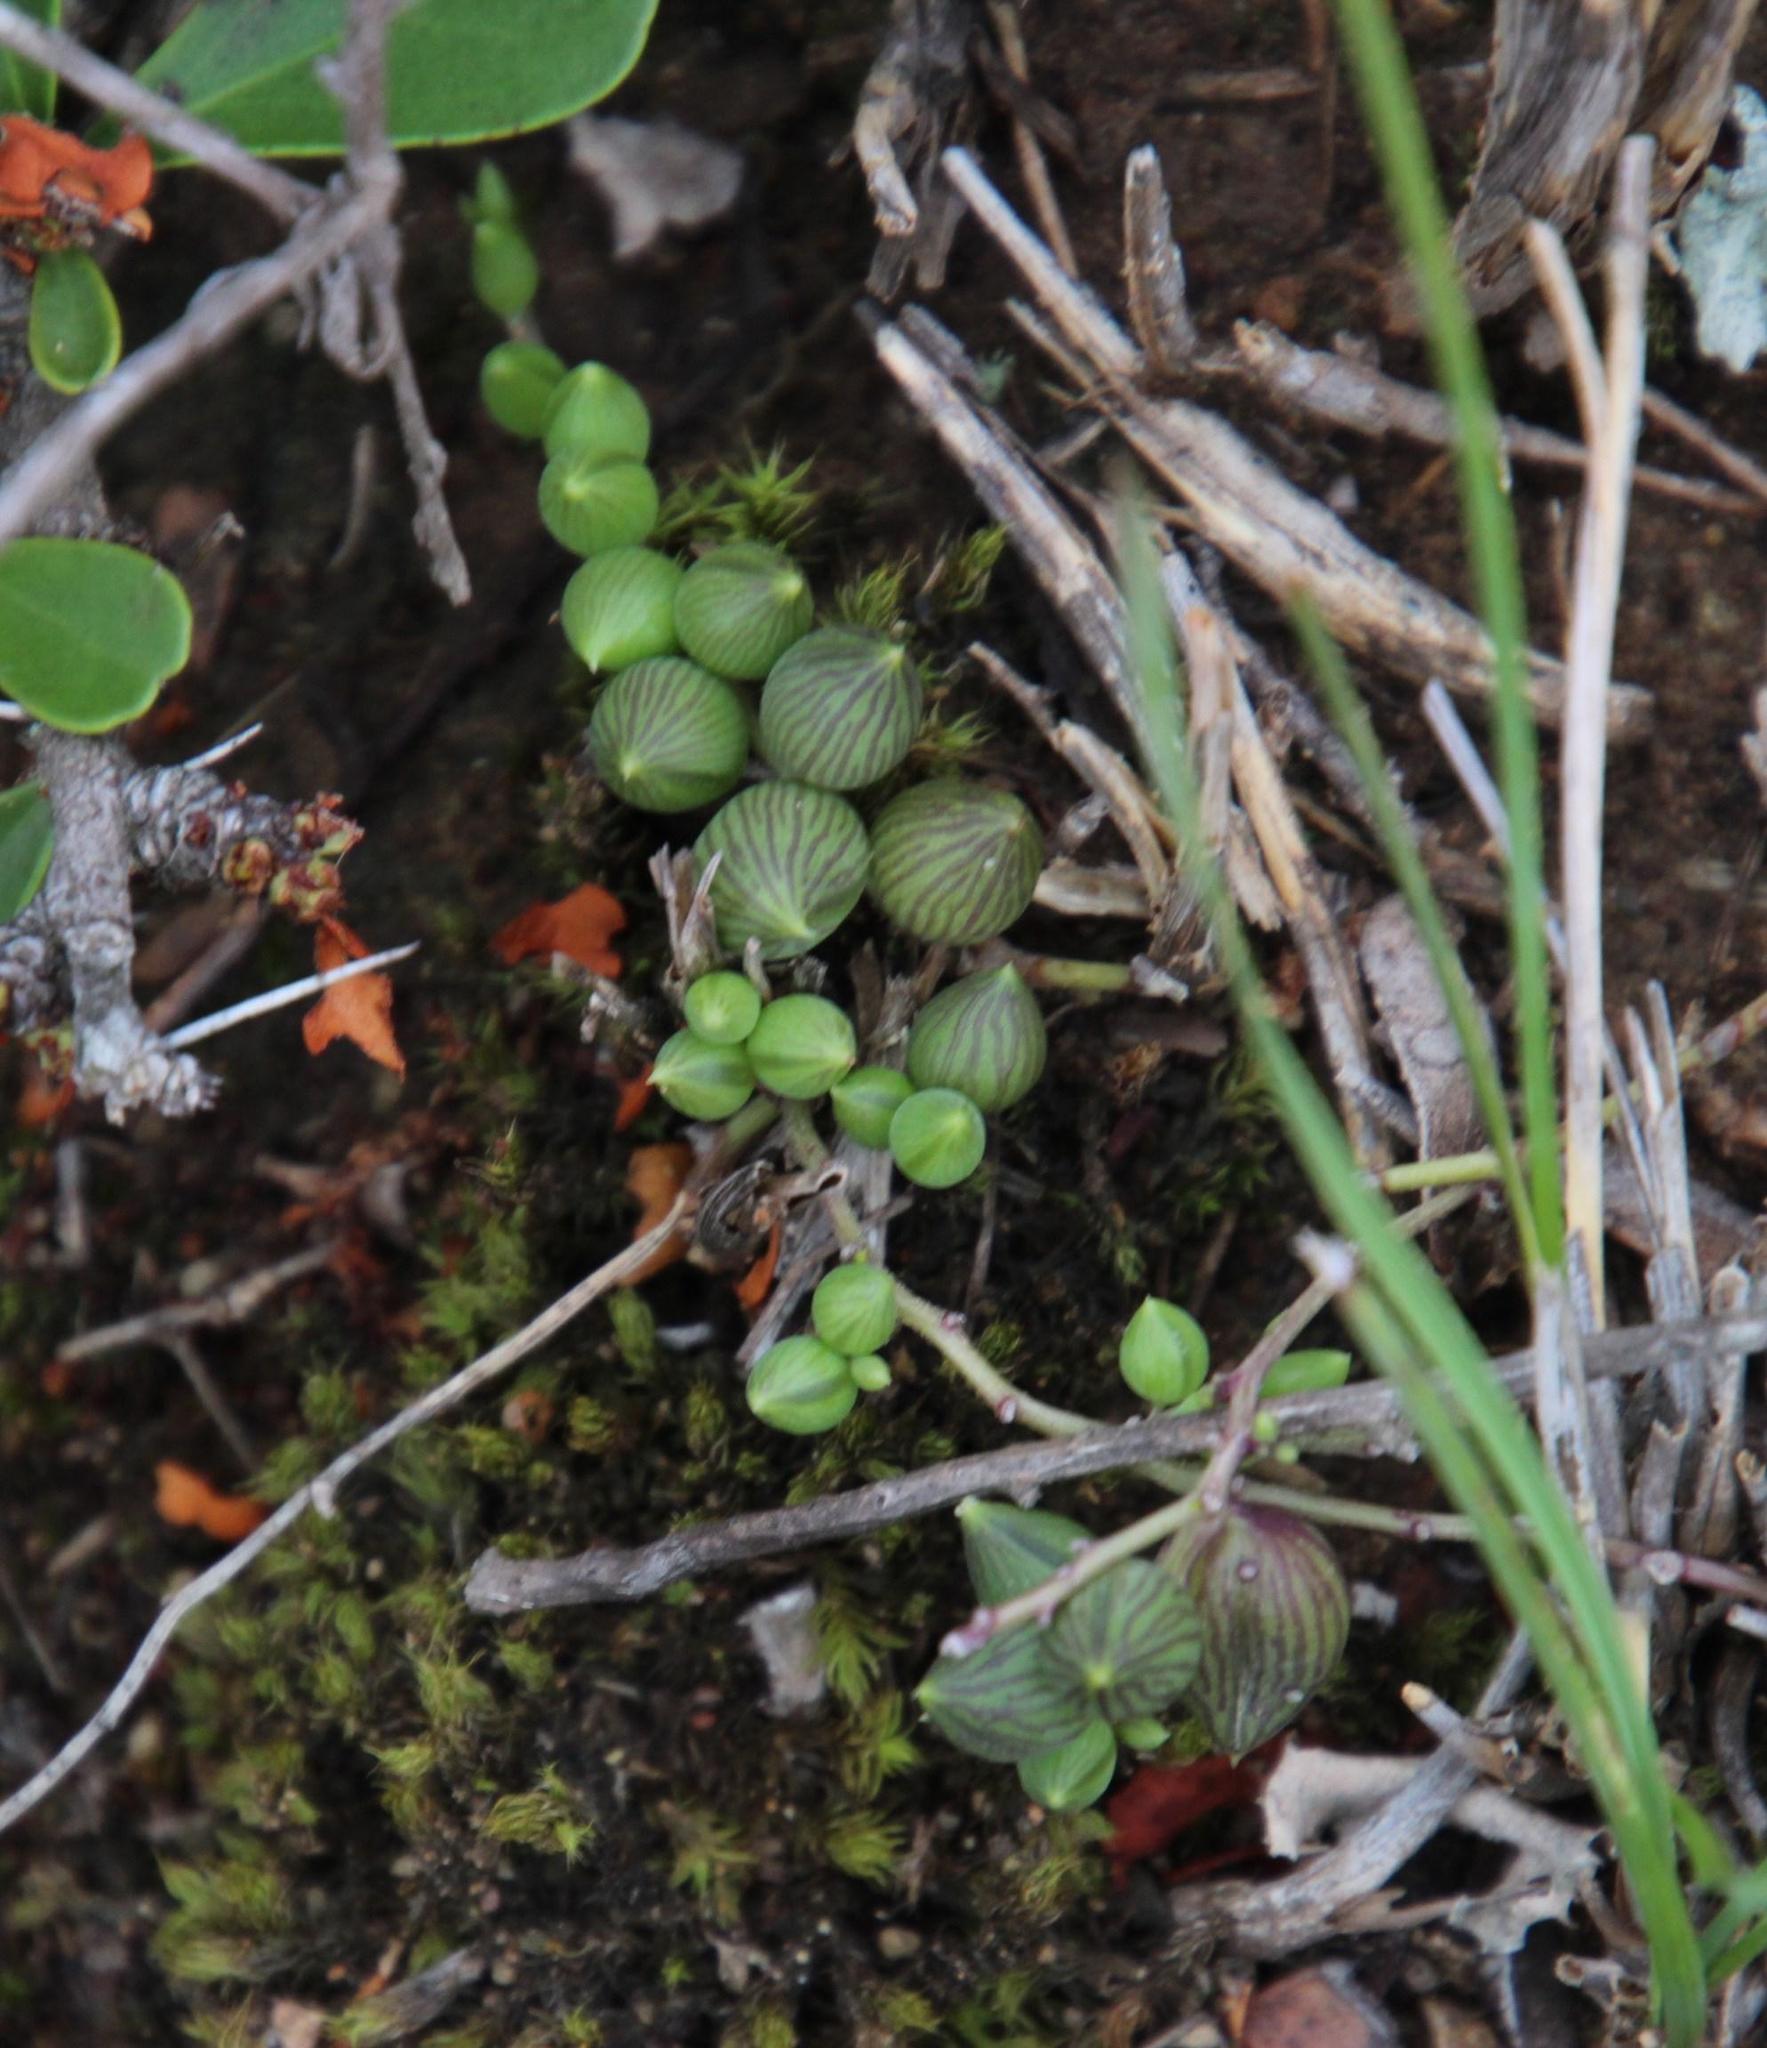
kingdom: Plantae
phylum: Tracheophyta
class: Magnoliopsida
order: Asterales
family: Asteraceae
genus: Curio
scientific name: Curio radicans
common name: Creeping-berry
